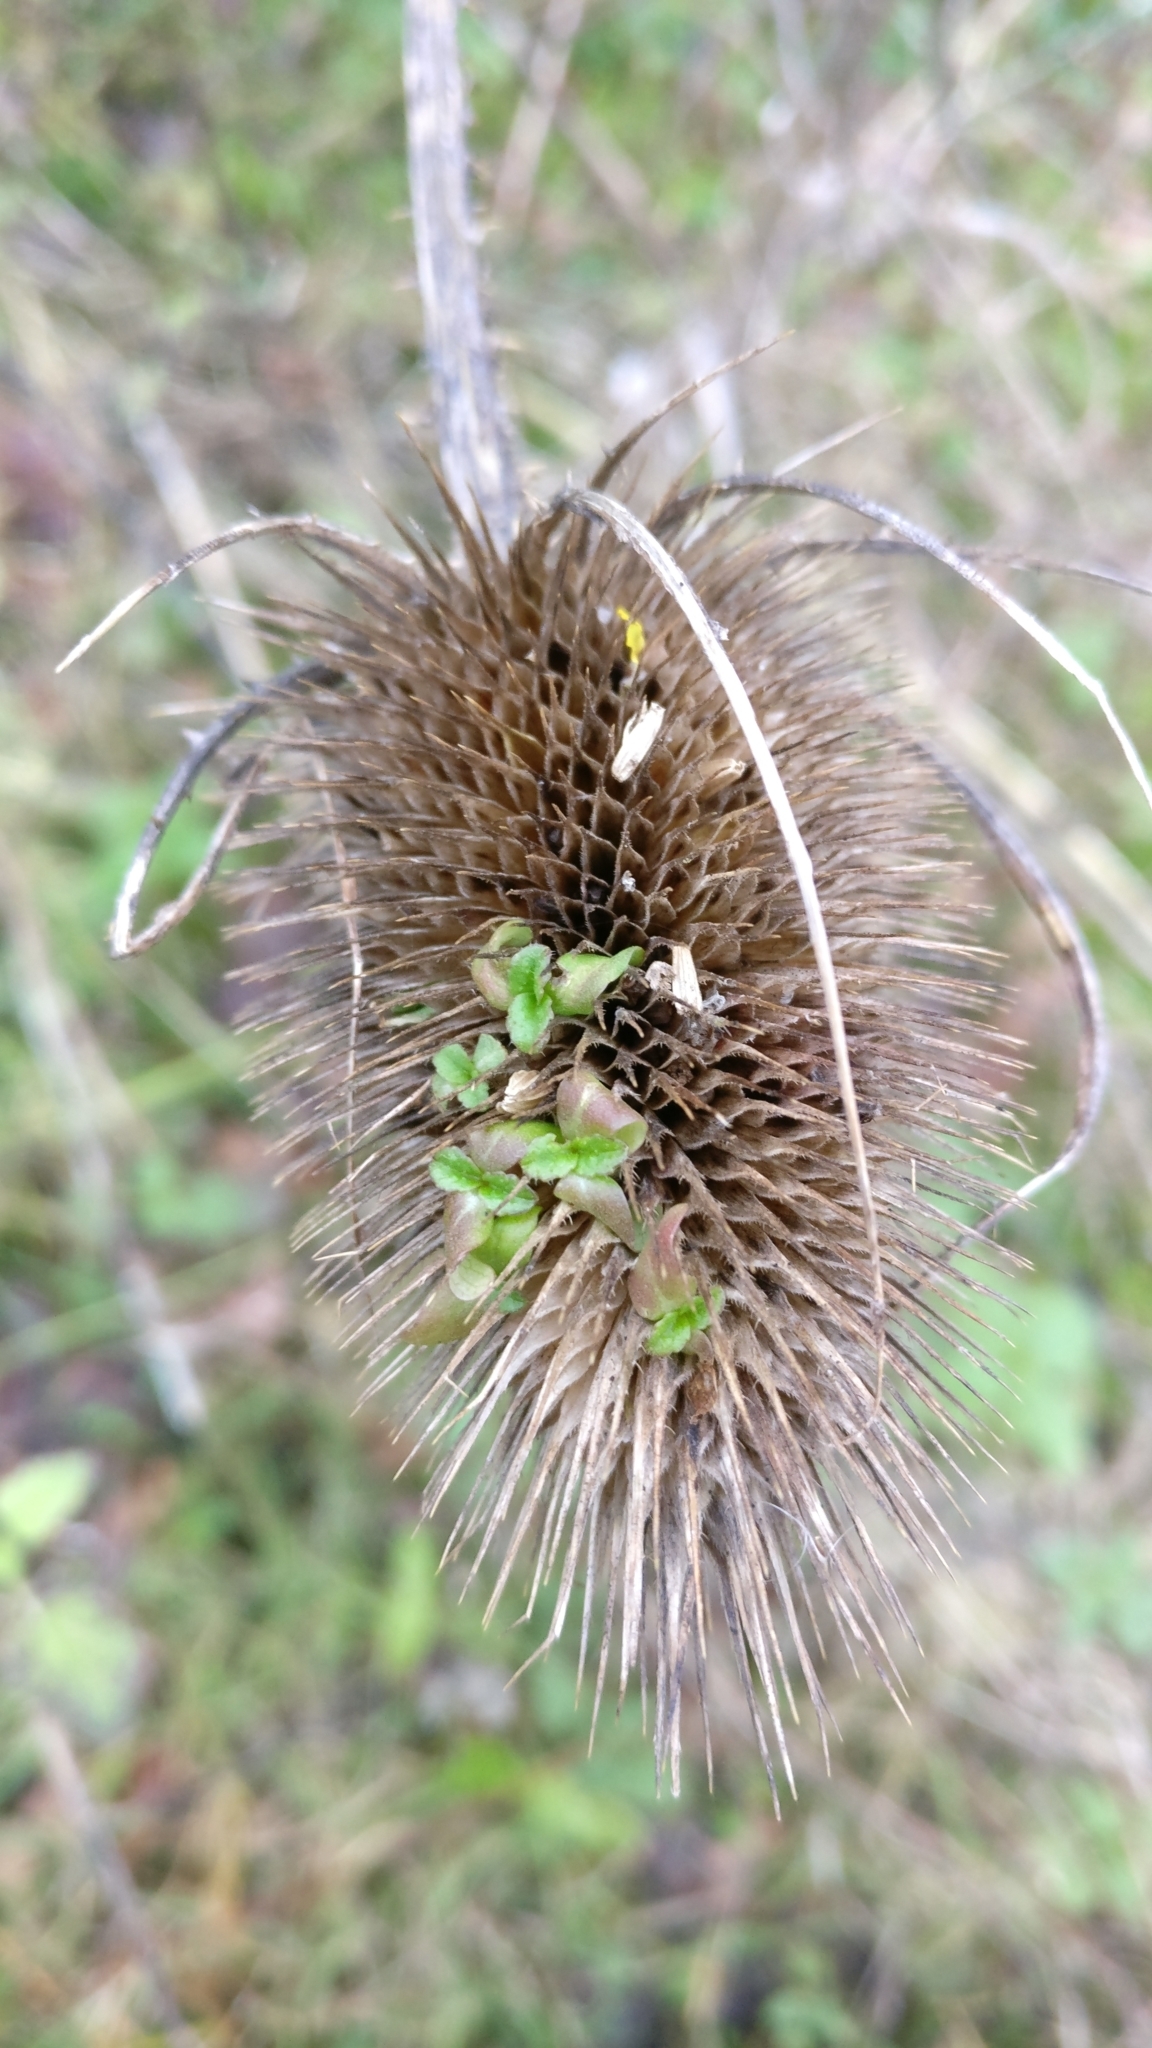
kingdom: Plantae
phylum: Tracheophyta
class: Magnoliopsida
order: Dipsacales
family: Caprifoliaceae
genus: Dipsacus
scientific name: Dipsacus fullonum
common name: Teasel
